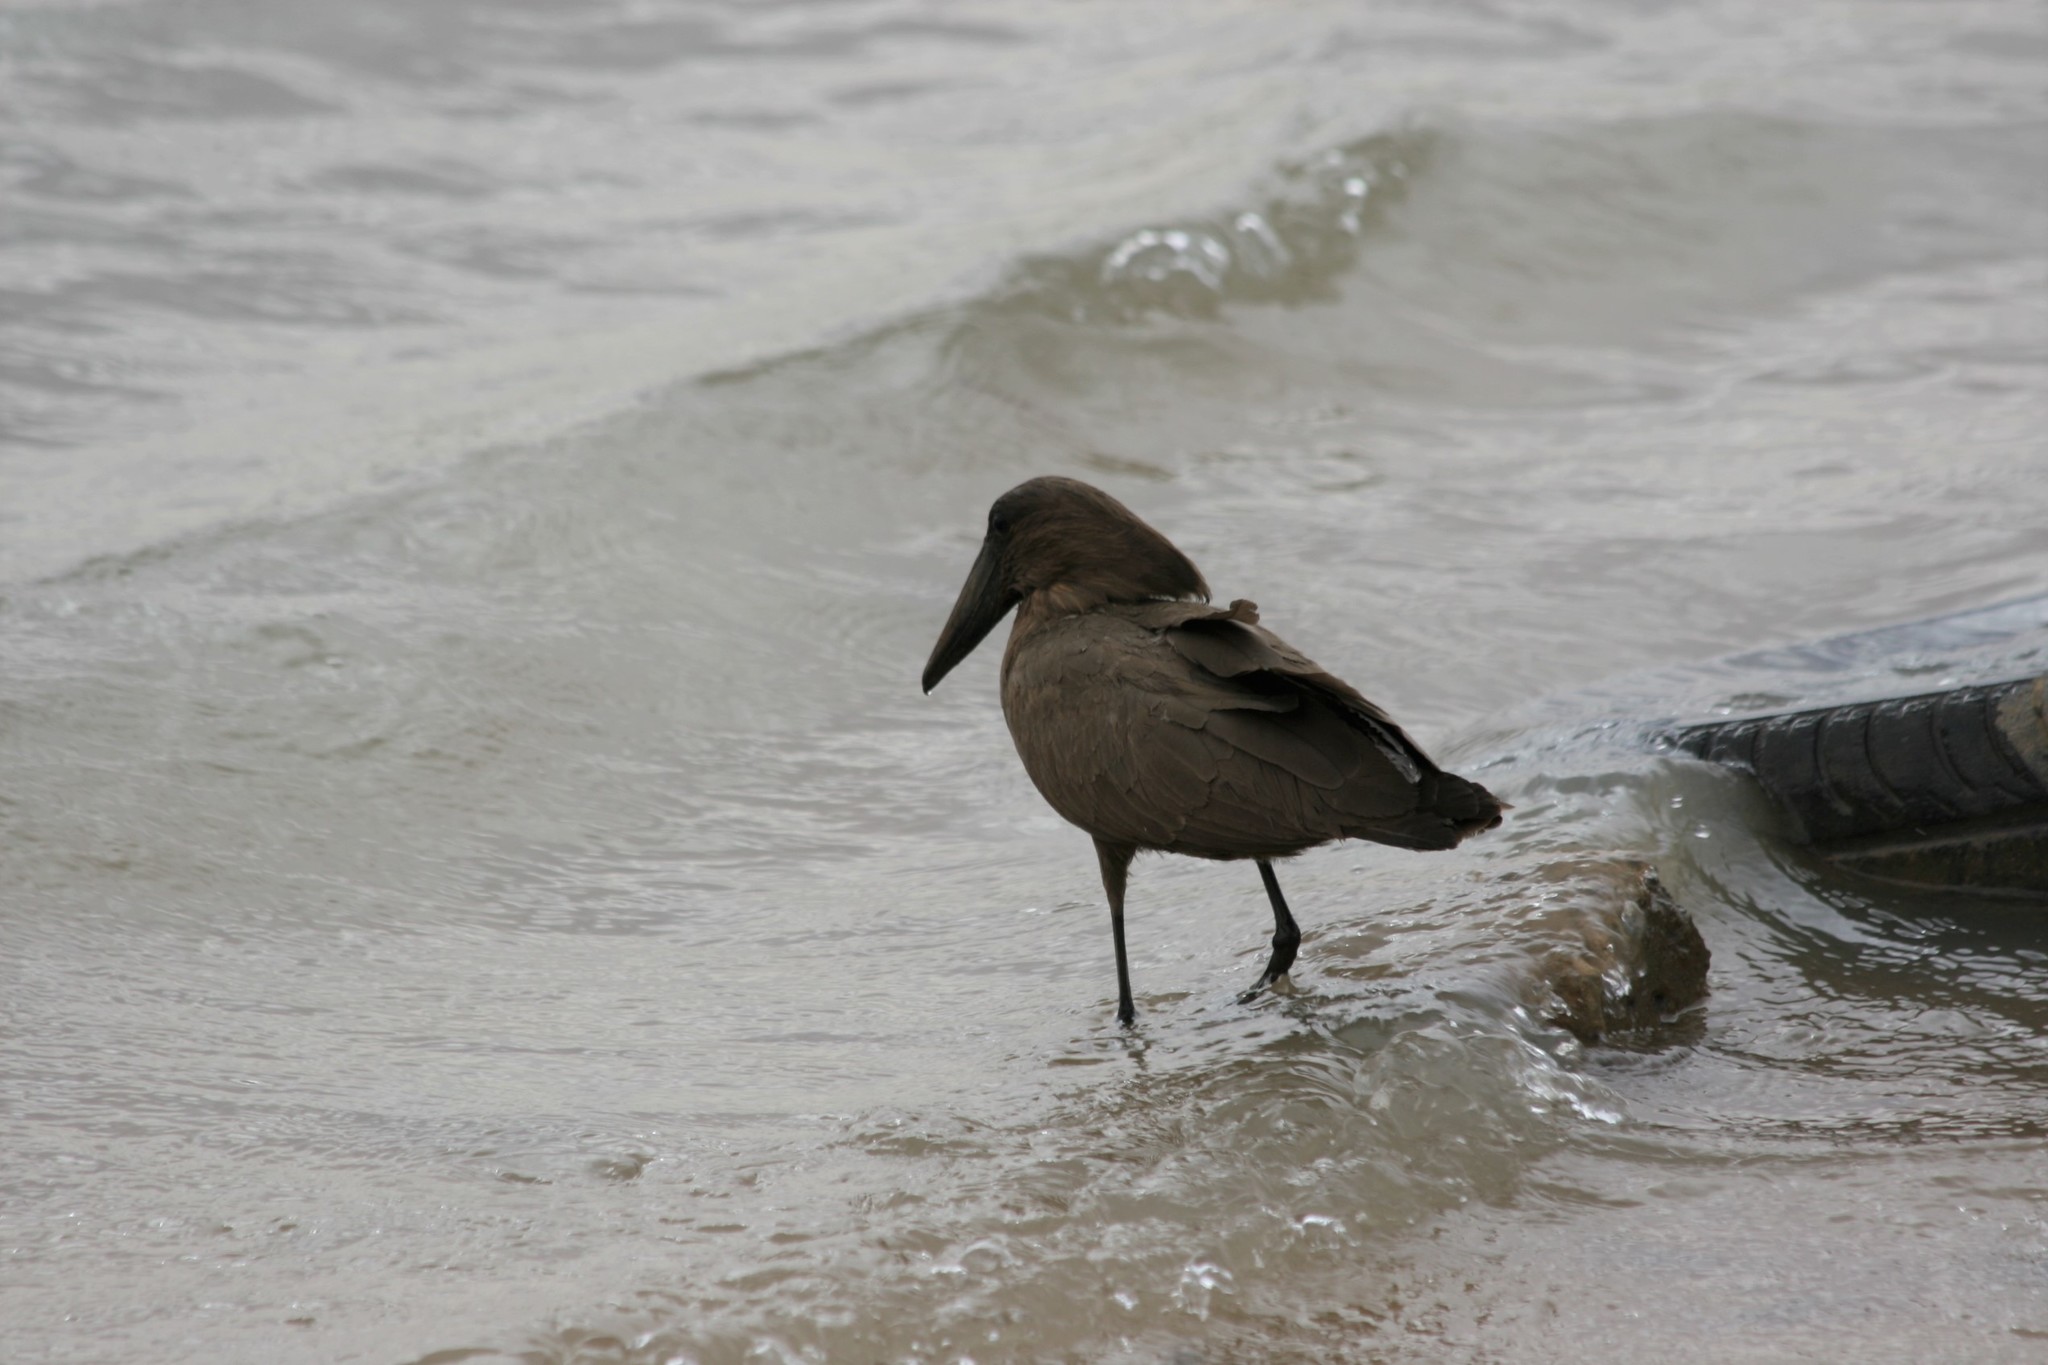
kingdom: Animalia
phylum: Chordata
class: Aves
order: Pelecaniformes
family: Scopidae
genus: Scopus
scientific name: Scopus umbretta
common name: Hamerkop
